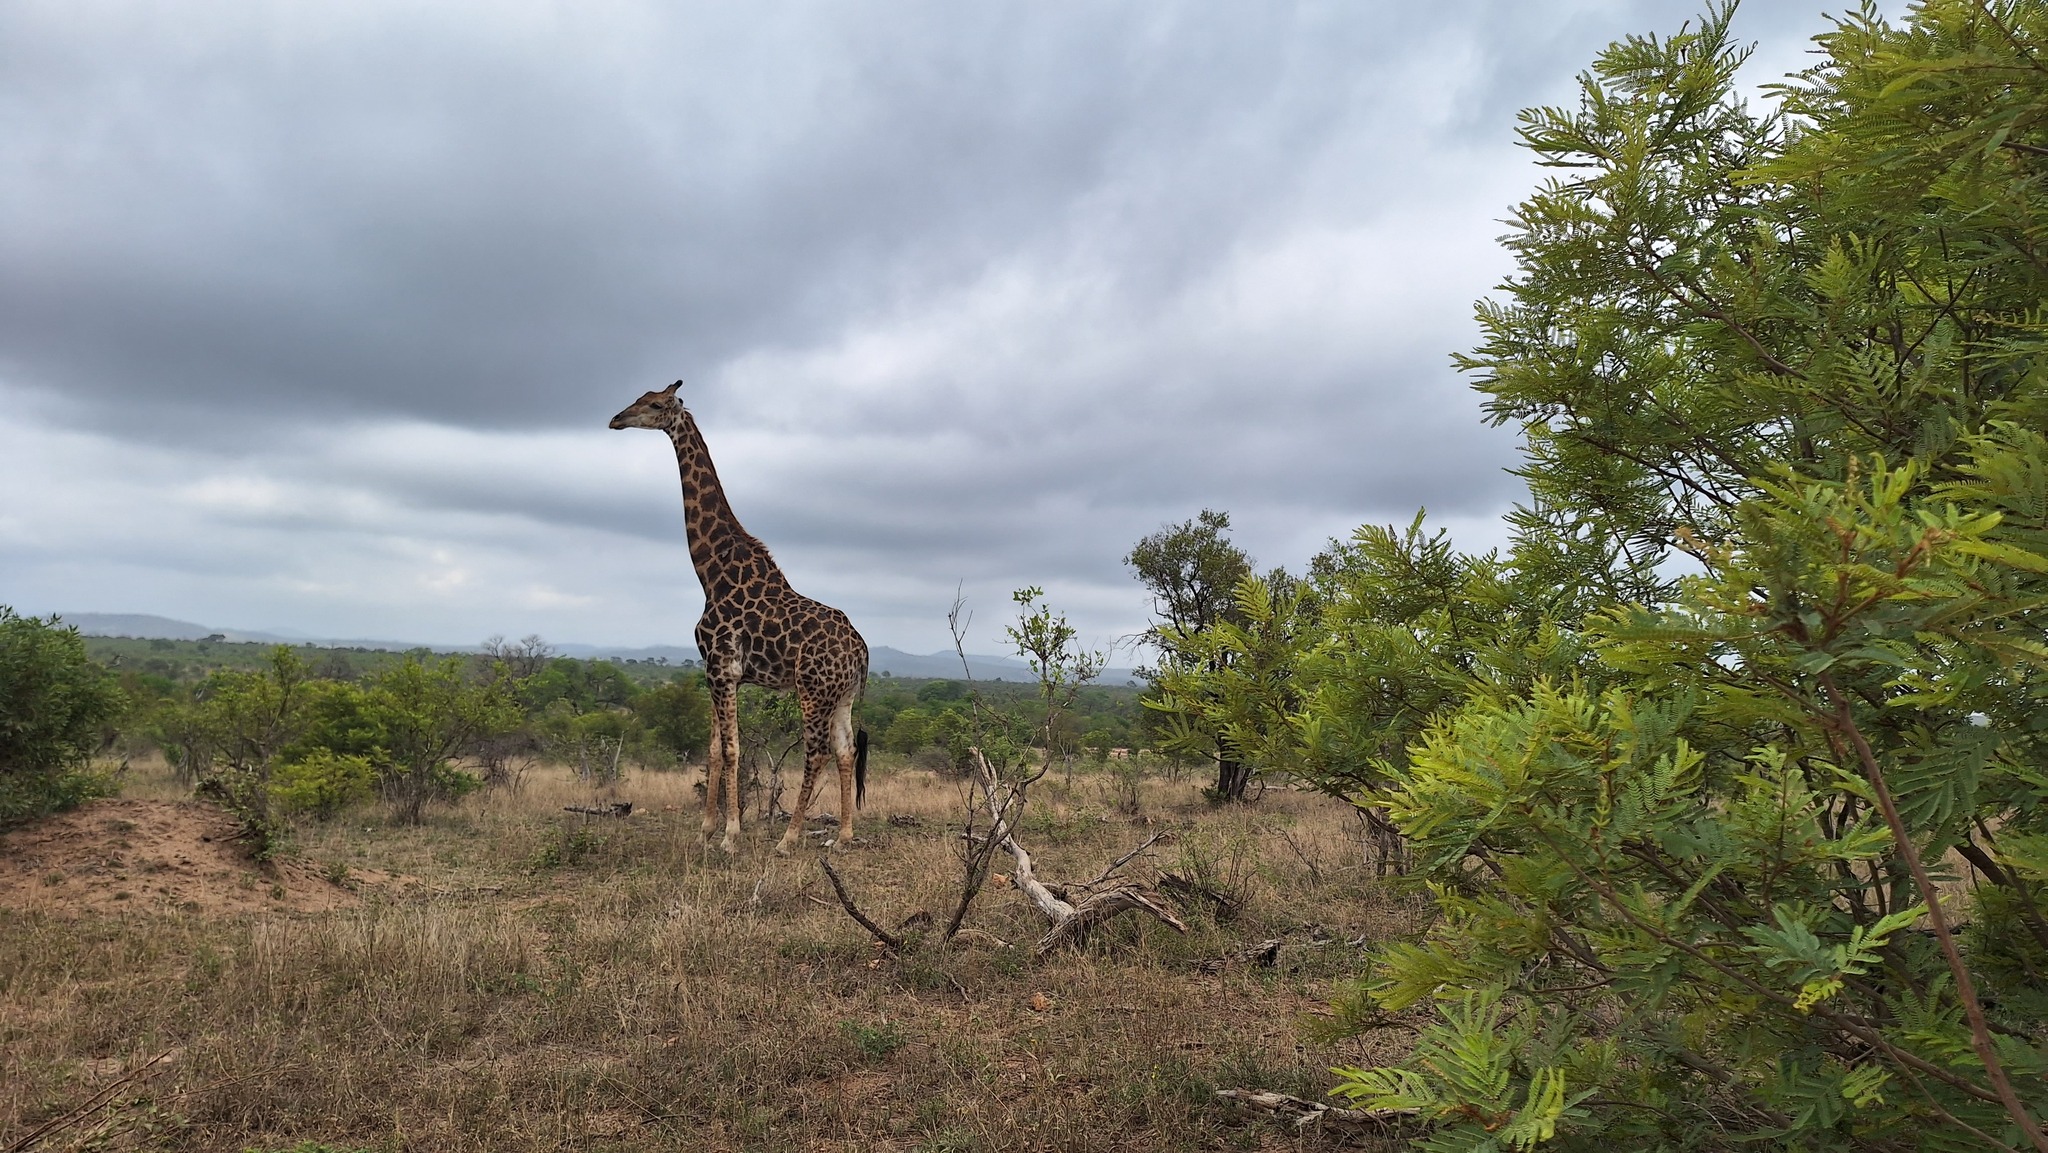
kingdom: Animalia
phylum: Chordata
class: Mammalia
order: Artiodactyla
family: Giraffidae
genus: Giraffa
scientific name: Giraffa giraffa
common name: Southern giraffe
